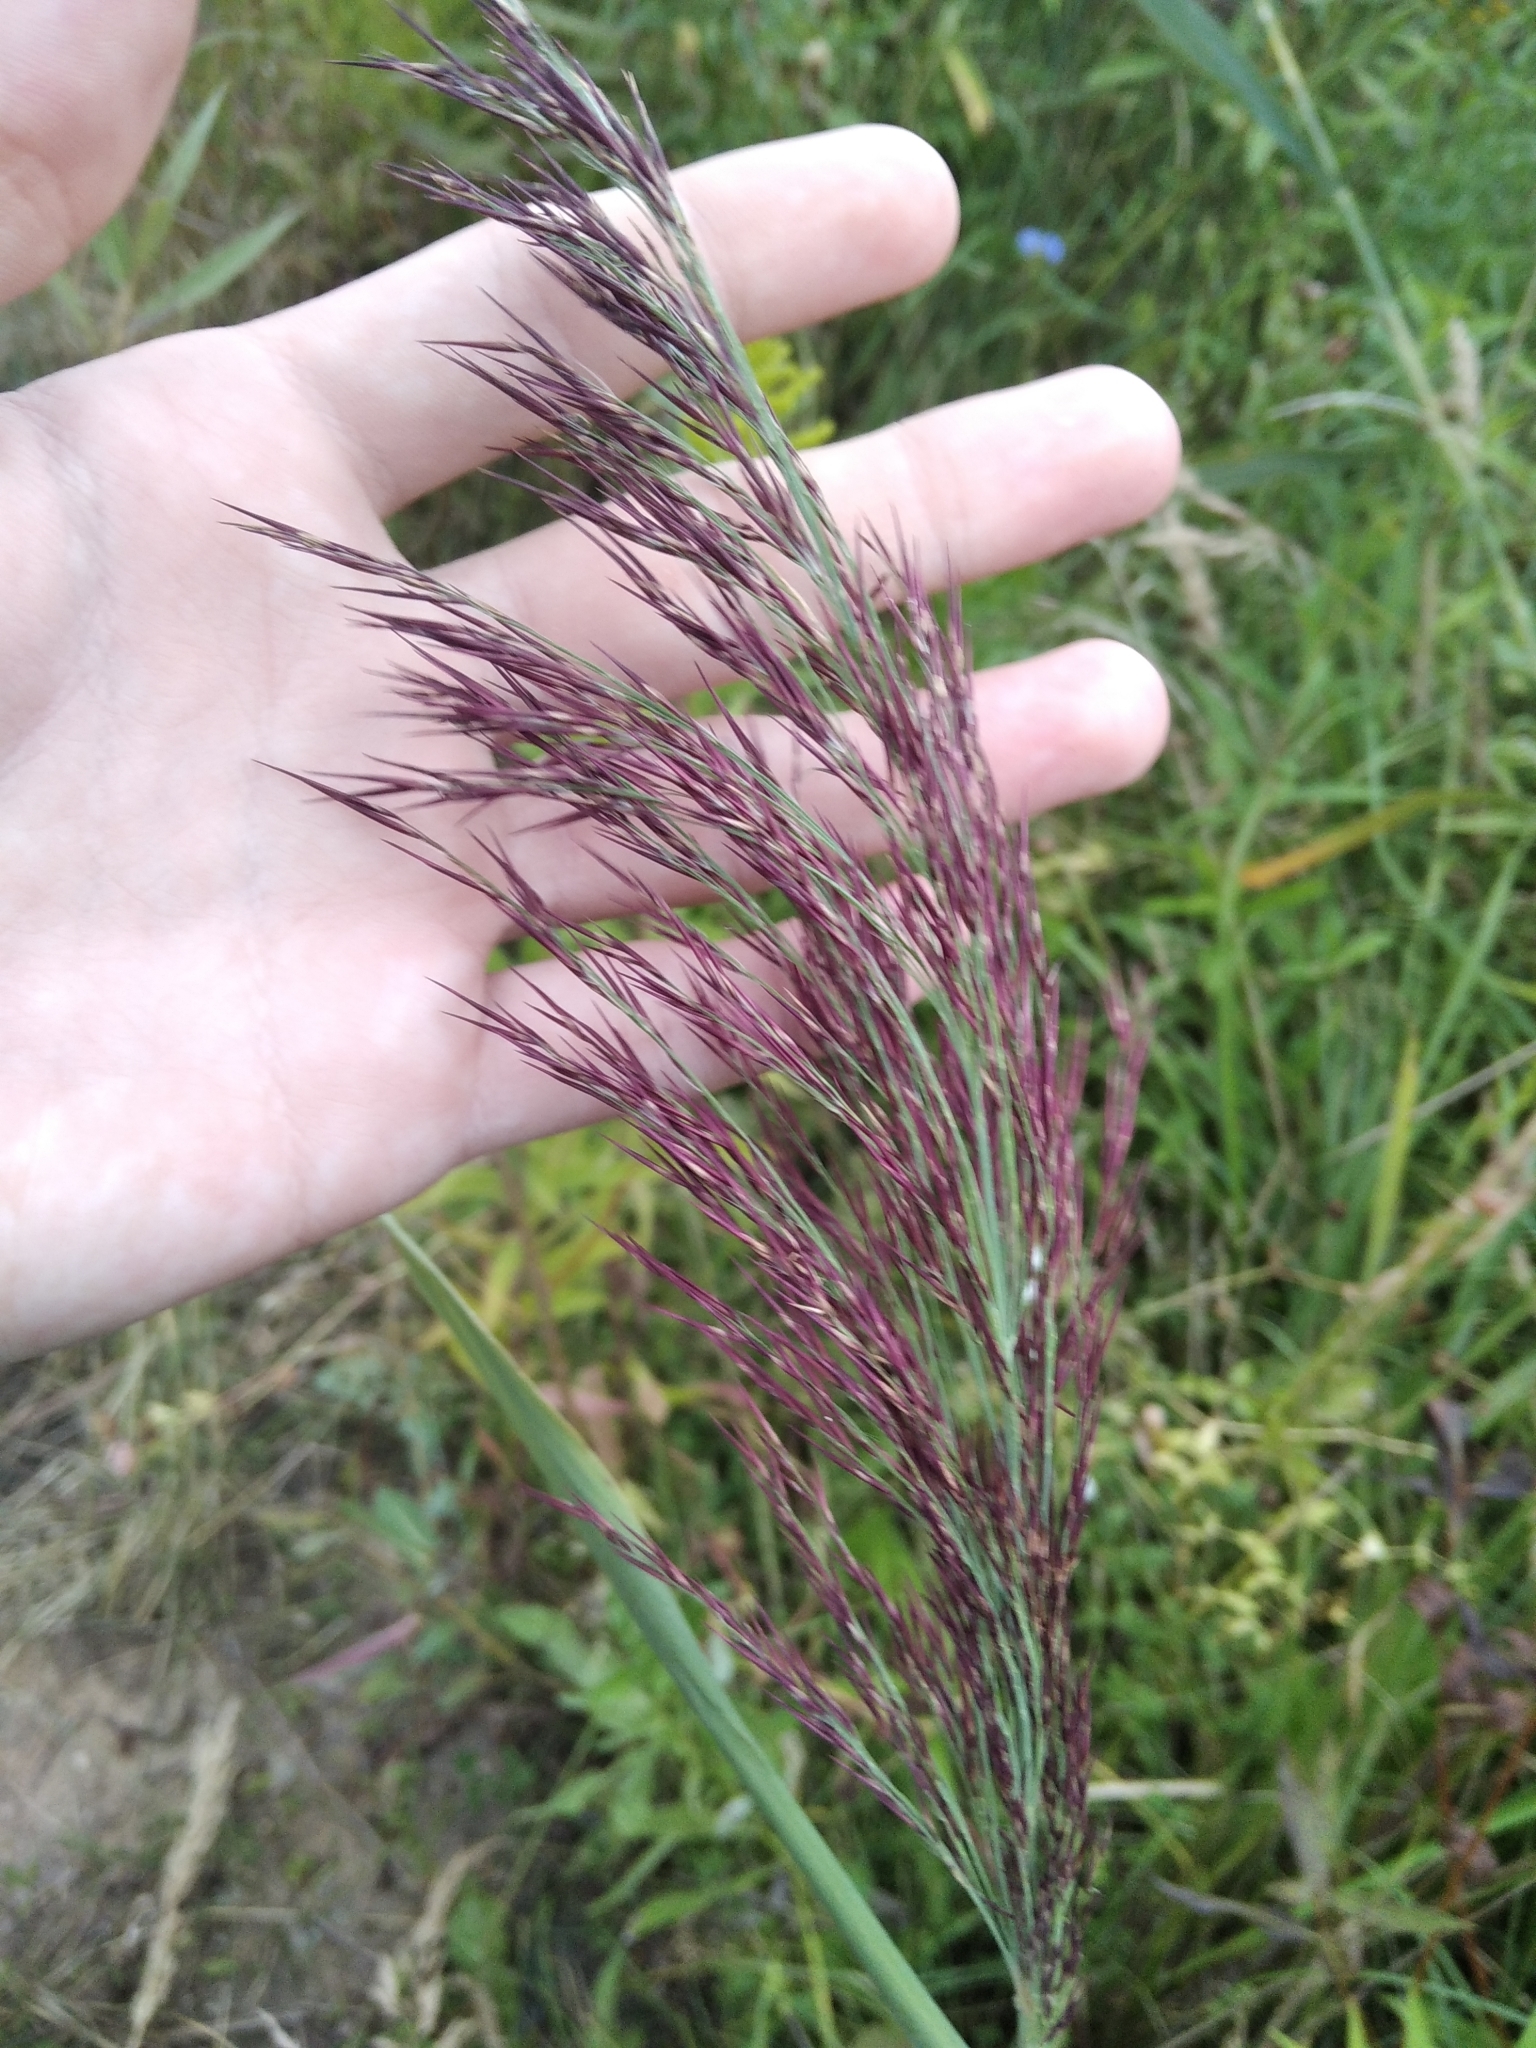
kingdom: Plantae
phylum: Tracheophyta
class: Liliopsida
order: Poales
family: Poaceae
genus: Phragmites
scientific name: Phragmites australis
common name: Common reed
